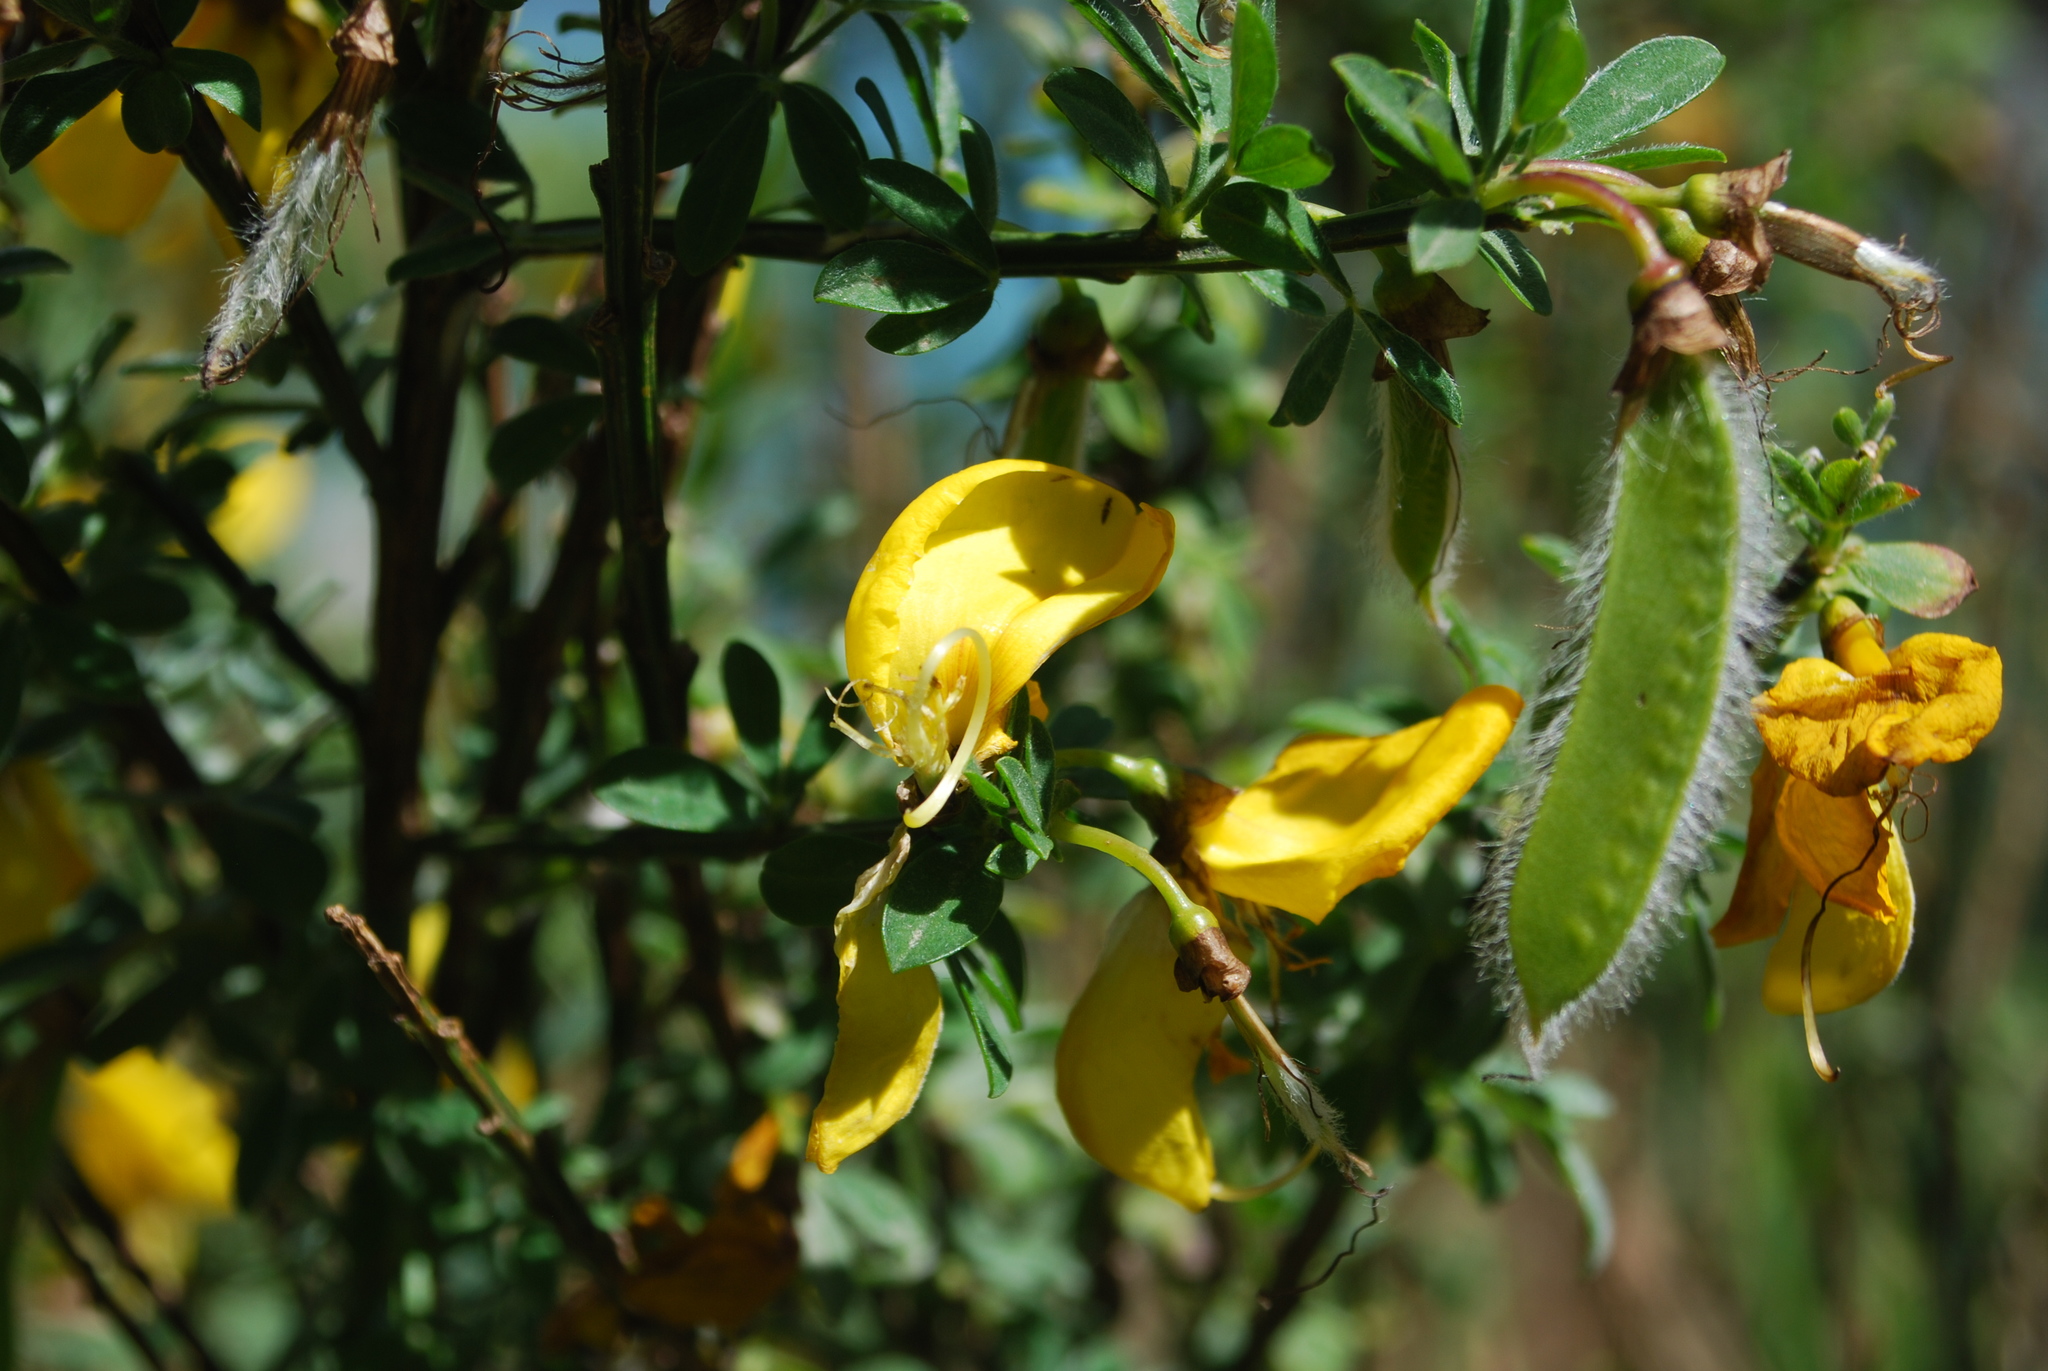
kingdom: Plantae
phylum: Tracheophyta
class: Magnoliopsida
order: Fabales
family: Fabaceae
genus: Cytisus
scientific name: Cytisus scoparius
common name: Scotch broom
